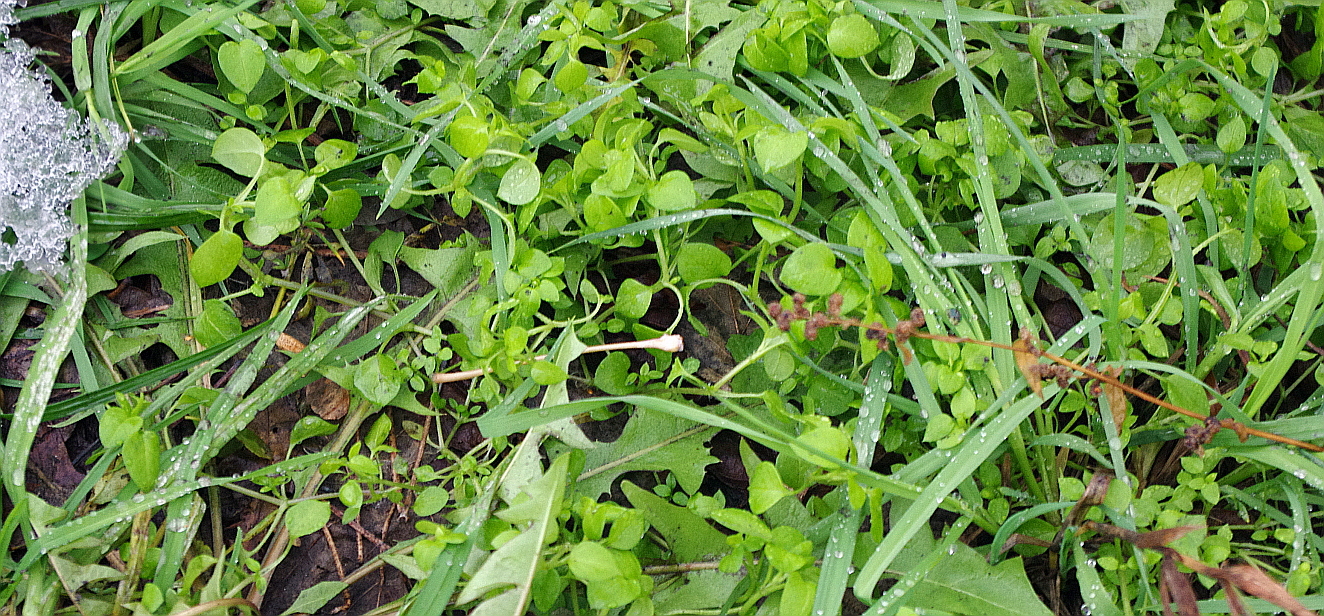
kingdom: Plantae
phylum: Tracheophyta
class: Magnoliopsida
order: Caryophyllales
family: Caryophyllaceae
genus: Stellaria
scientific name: Stellaria media
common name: Common chickweed
